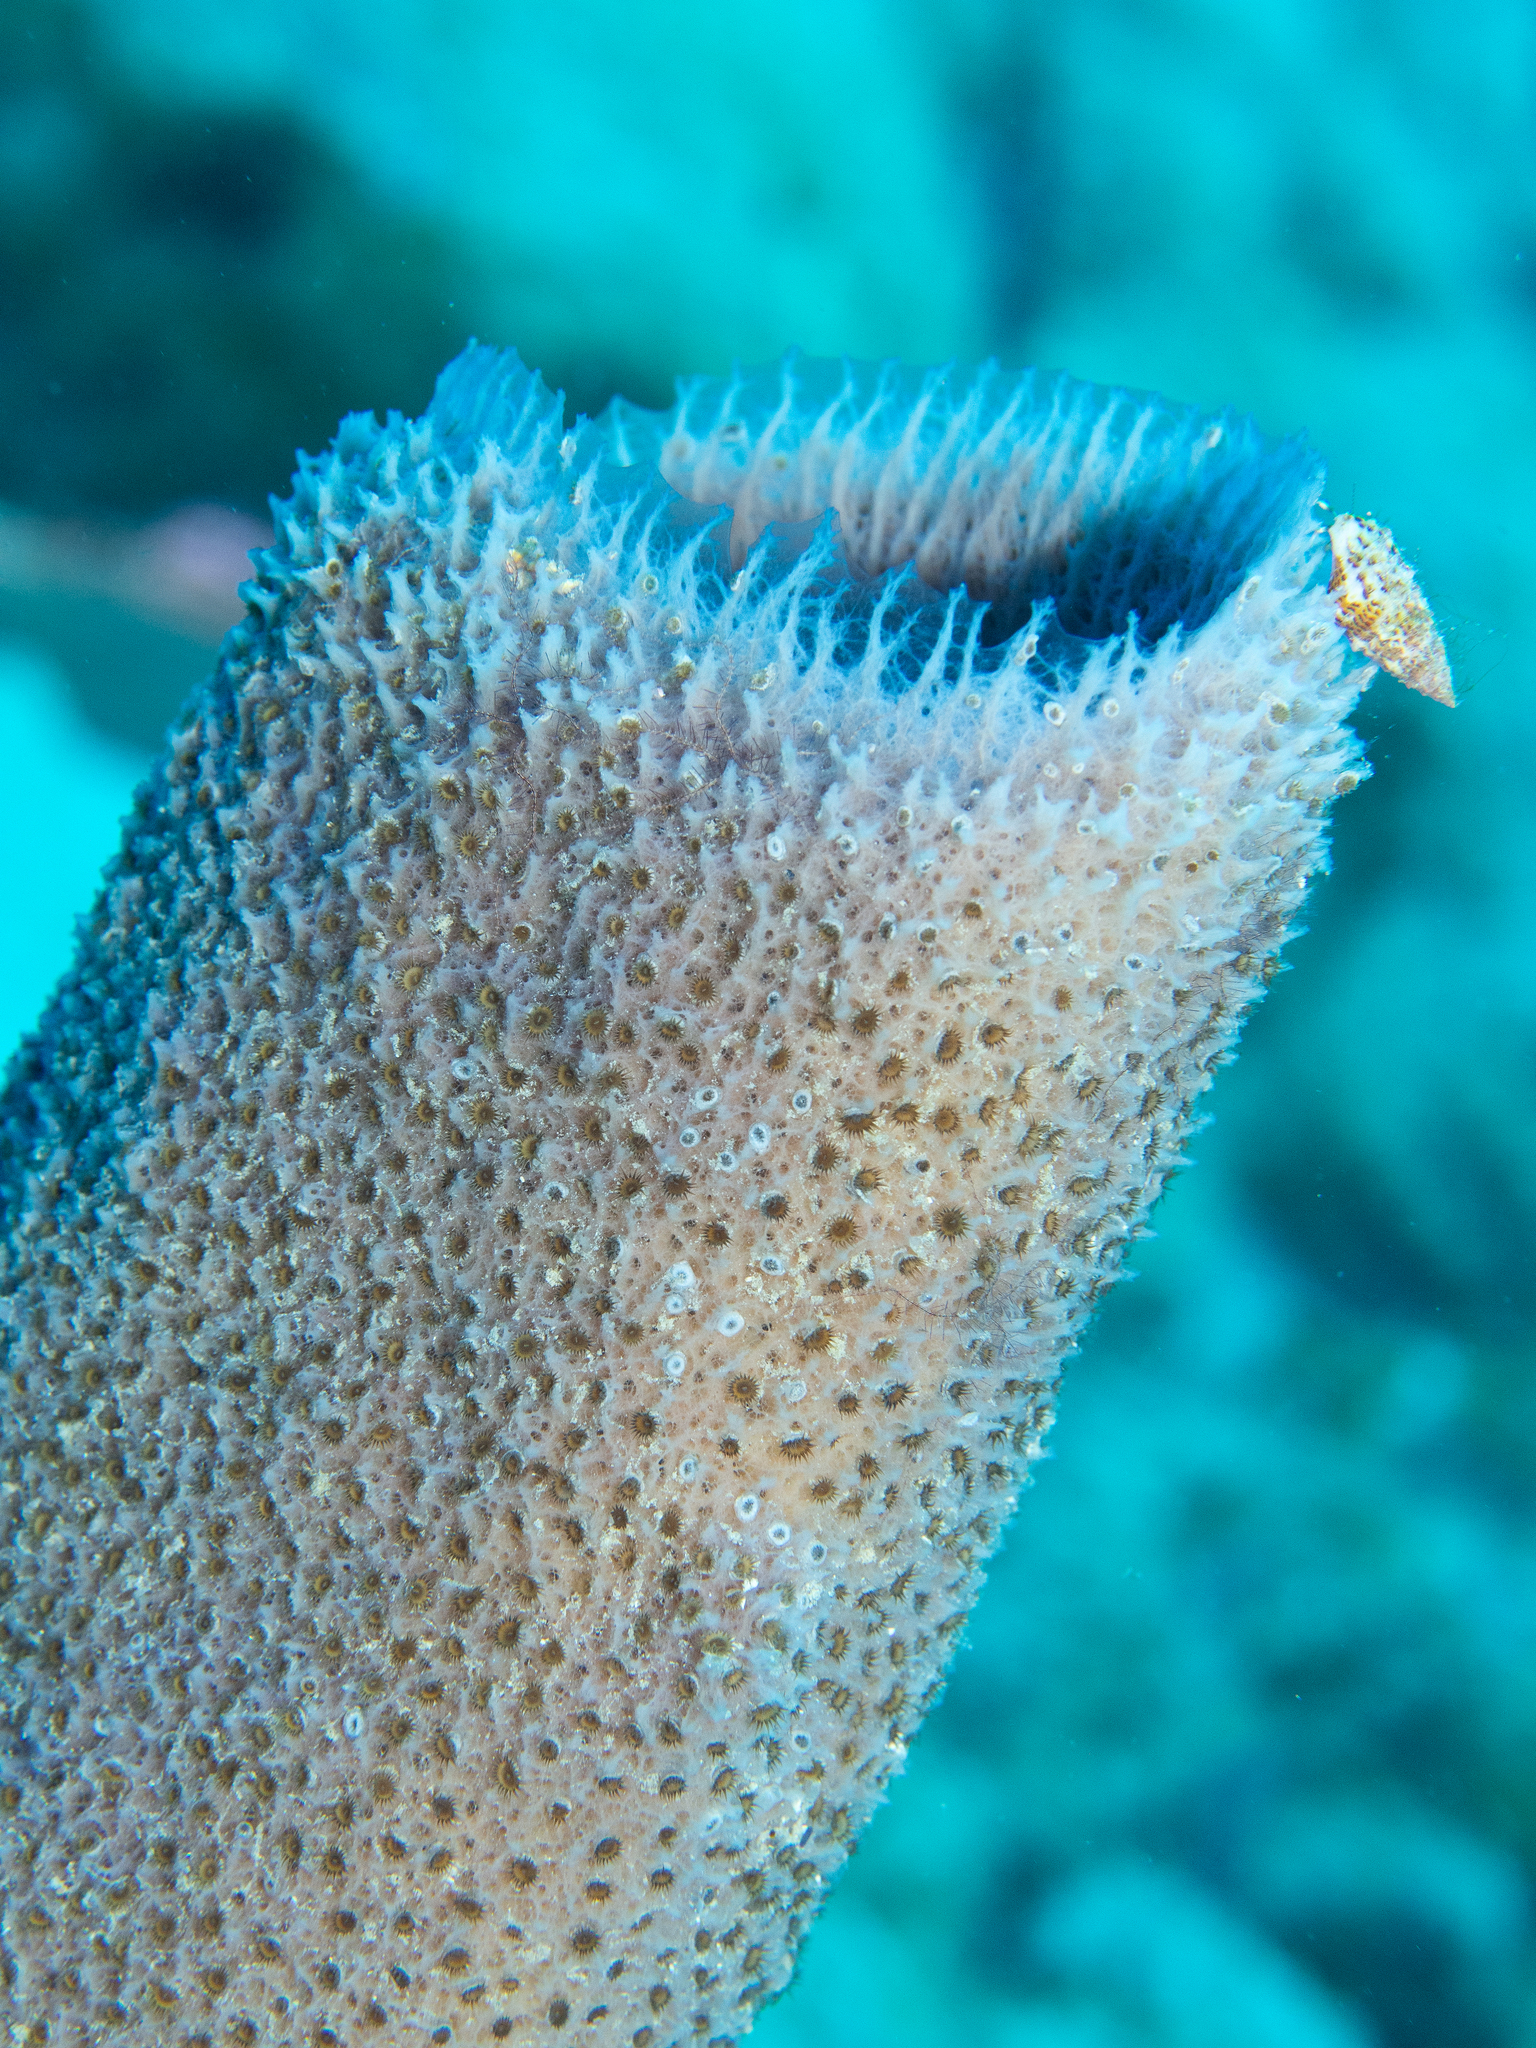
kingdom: Animalia
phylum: Porifera
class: Demospongiae
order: Haplosclerida
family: Niphatidae
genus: Niphates
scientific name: Niphates digitalis
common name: Pink vase sponge
